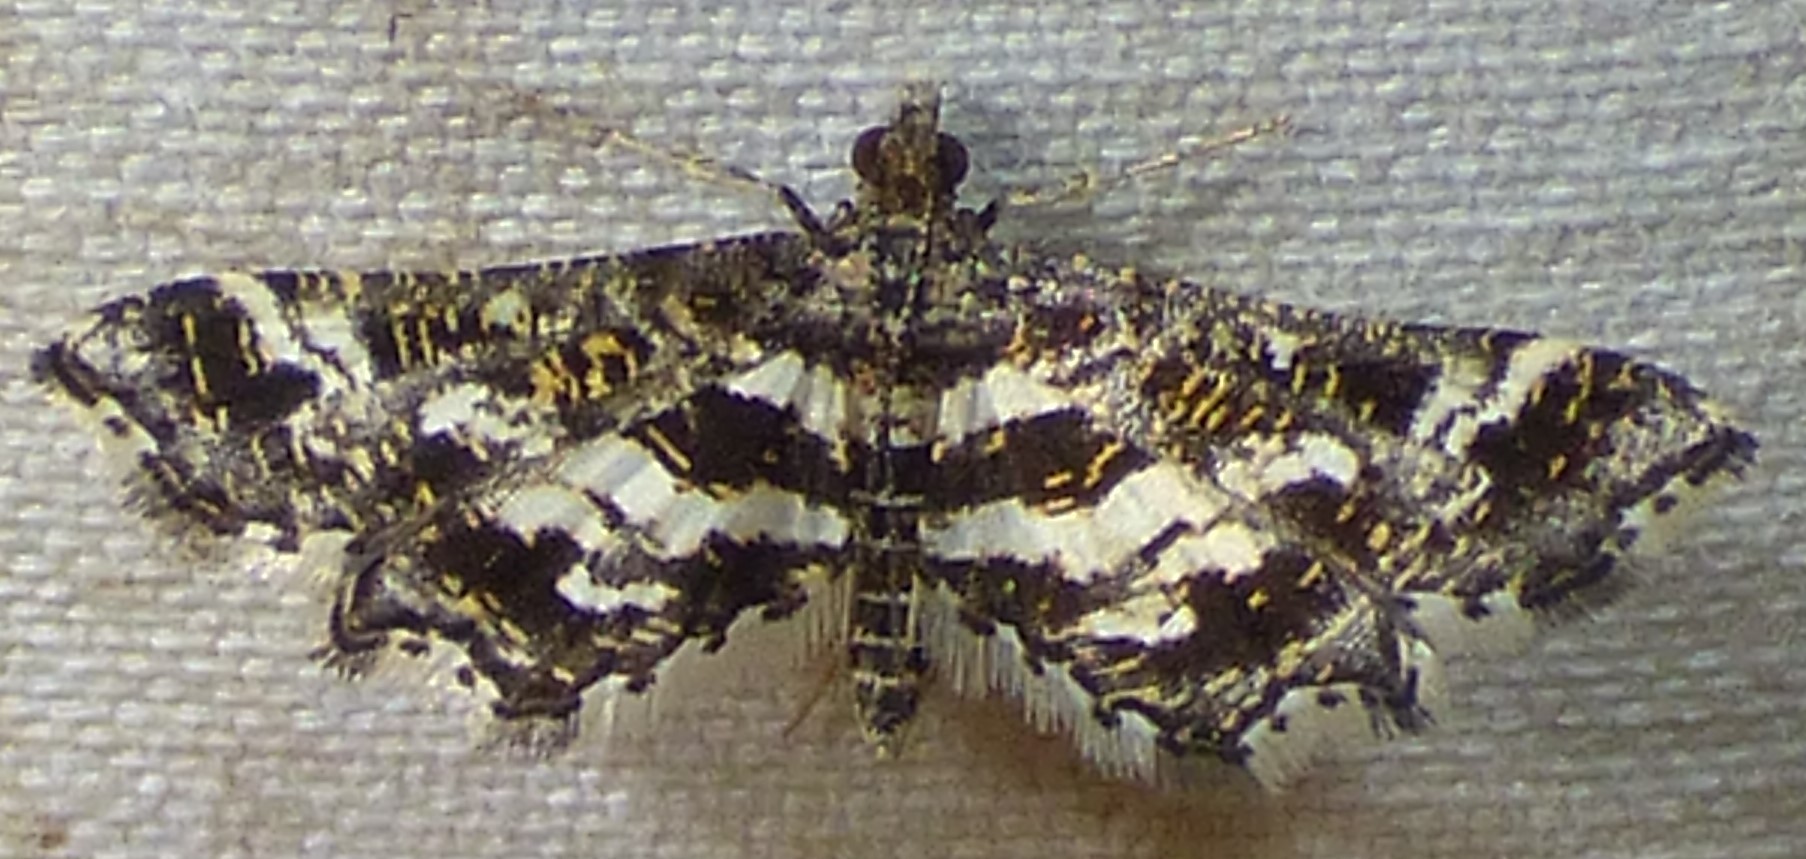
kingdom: Animalia
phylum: Arthropoda
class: Insecta
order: Lepidoptera
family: Crambidae
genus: Diasemiopsis
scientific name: Diasemiopsis ramburialis
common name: Vagrant china-mark
